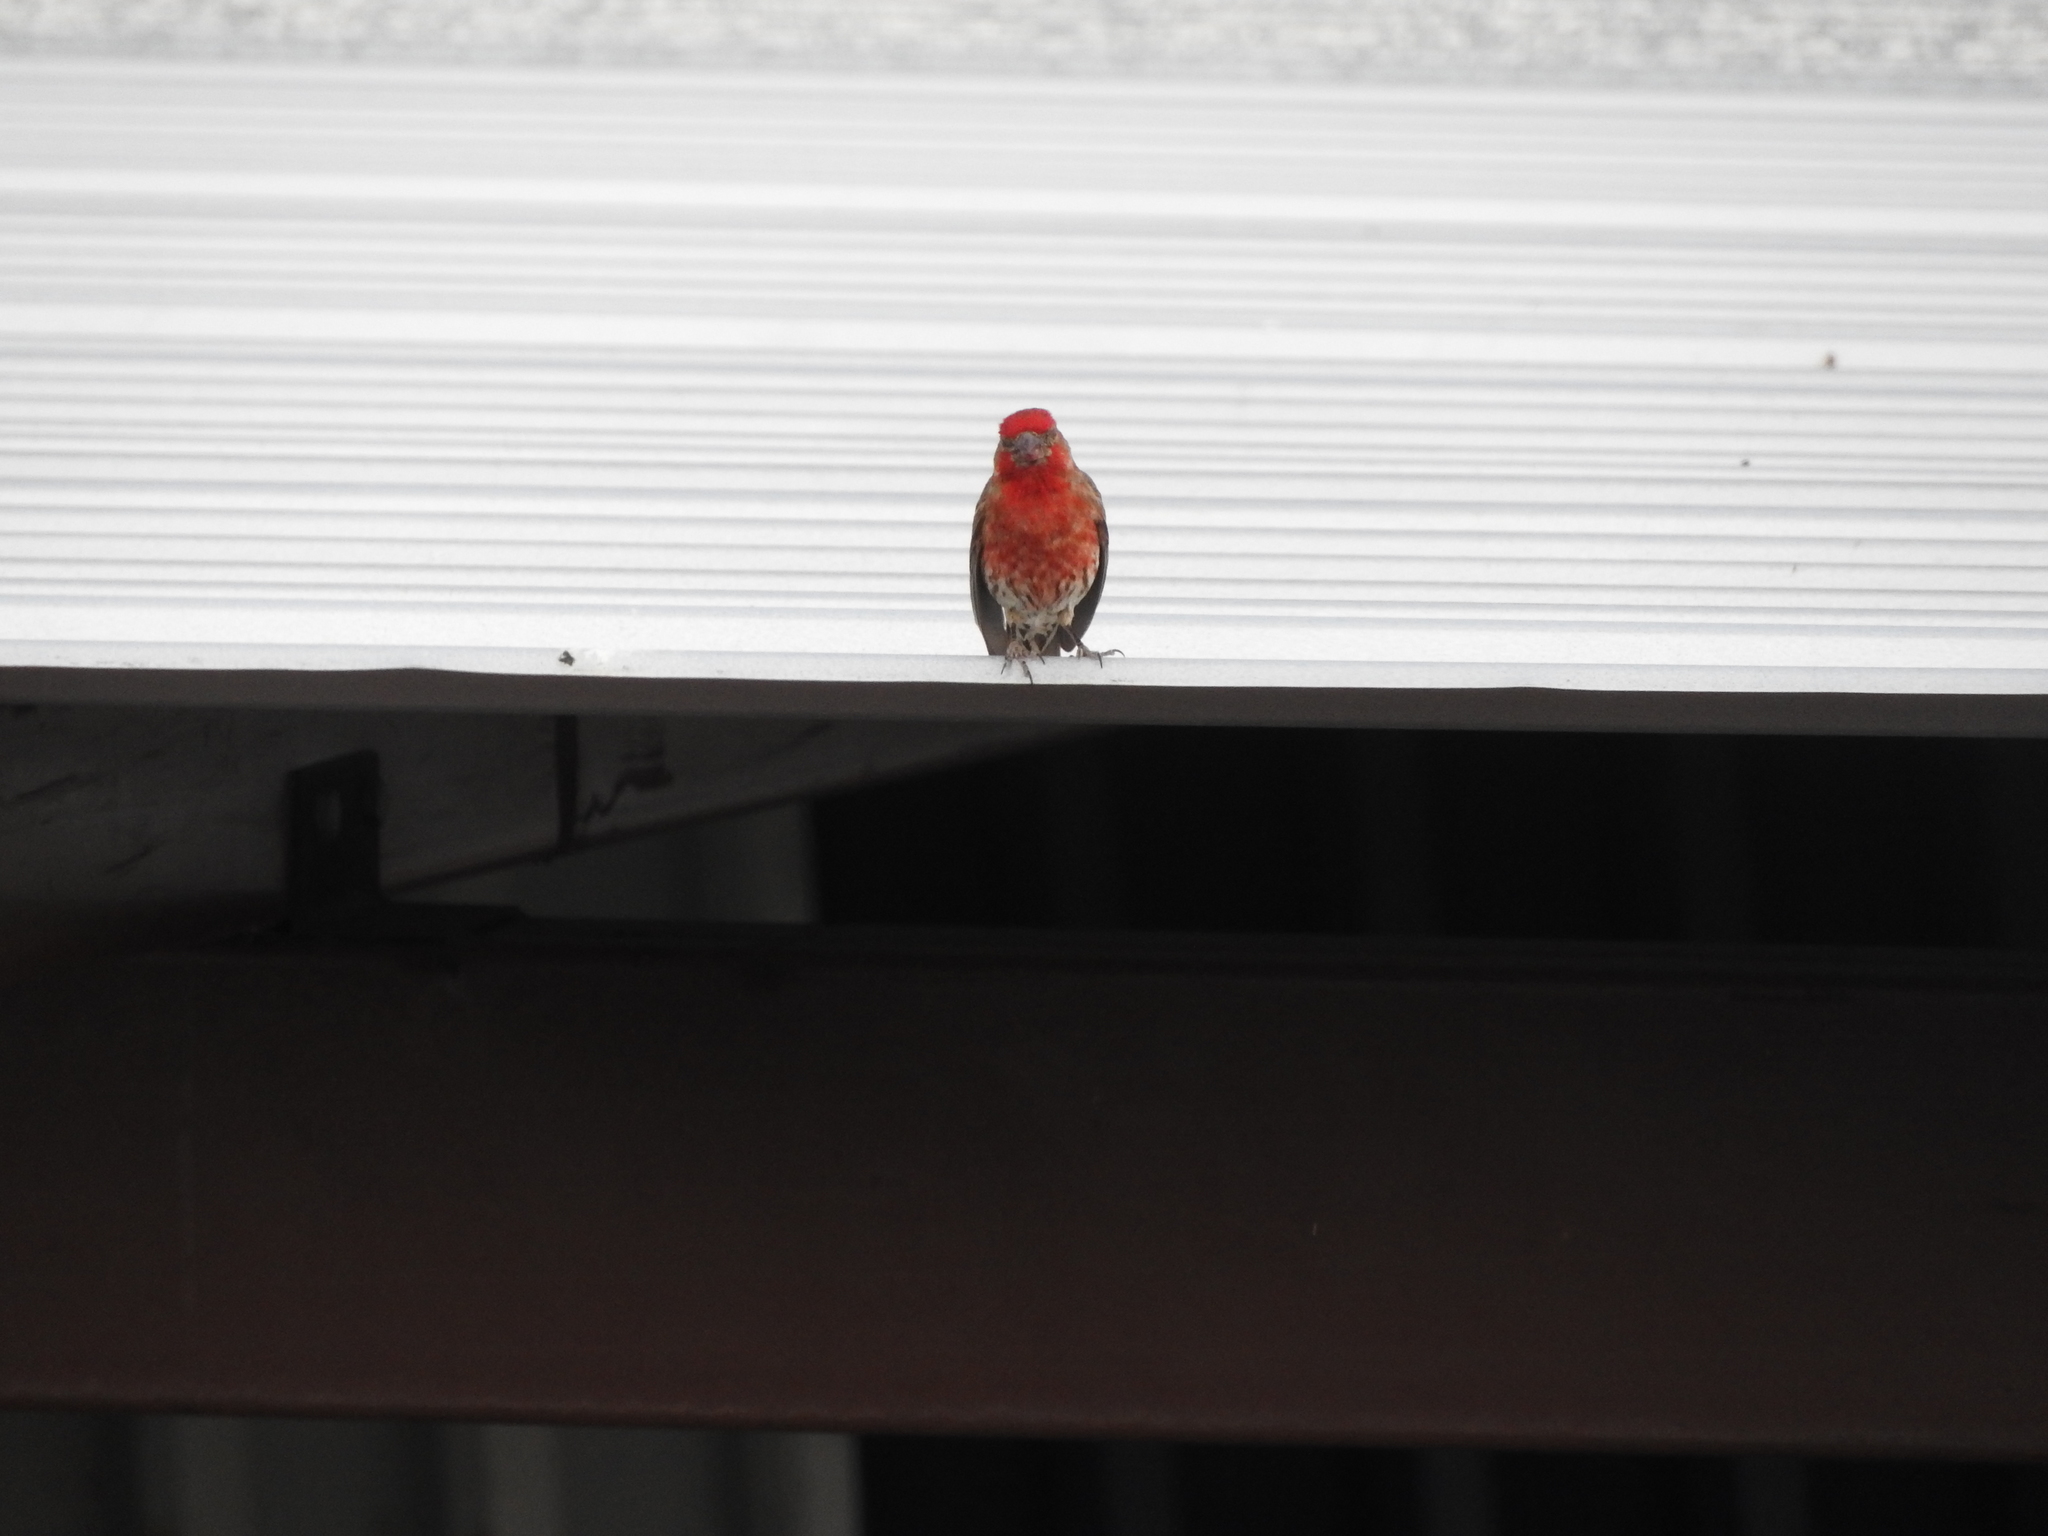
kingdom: Animalia
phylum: Chordata
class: Aves
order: Passeriformes
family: Fringillidae
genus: Haemorhous
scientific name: Haemorhous mexicanus
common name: House finch
